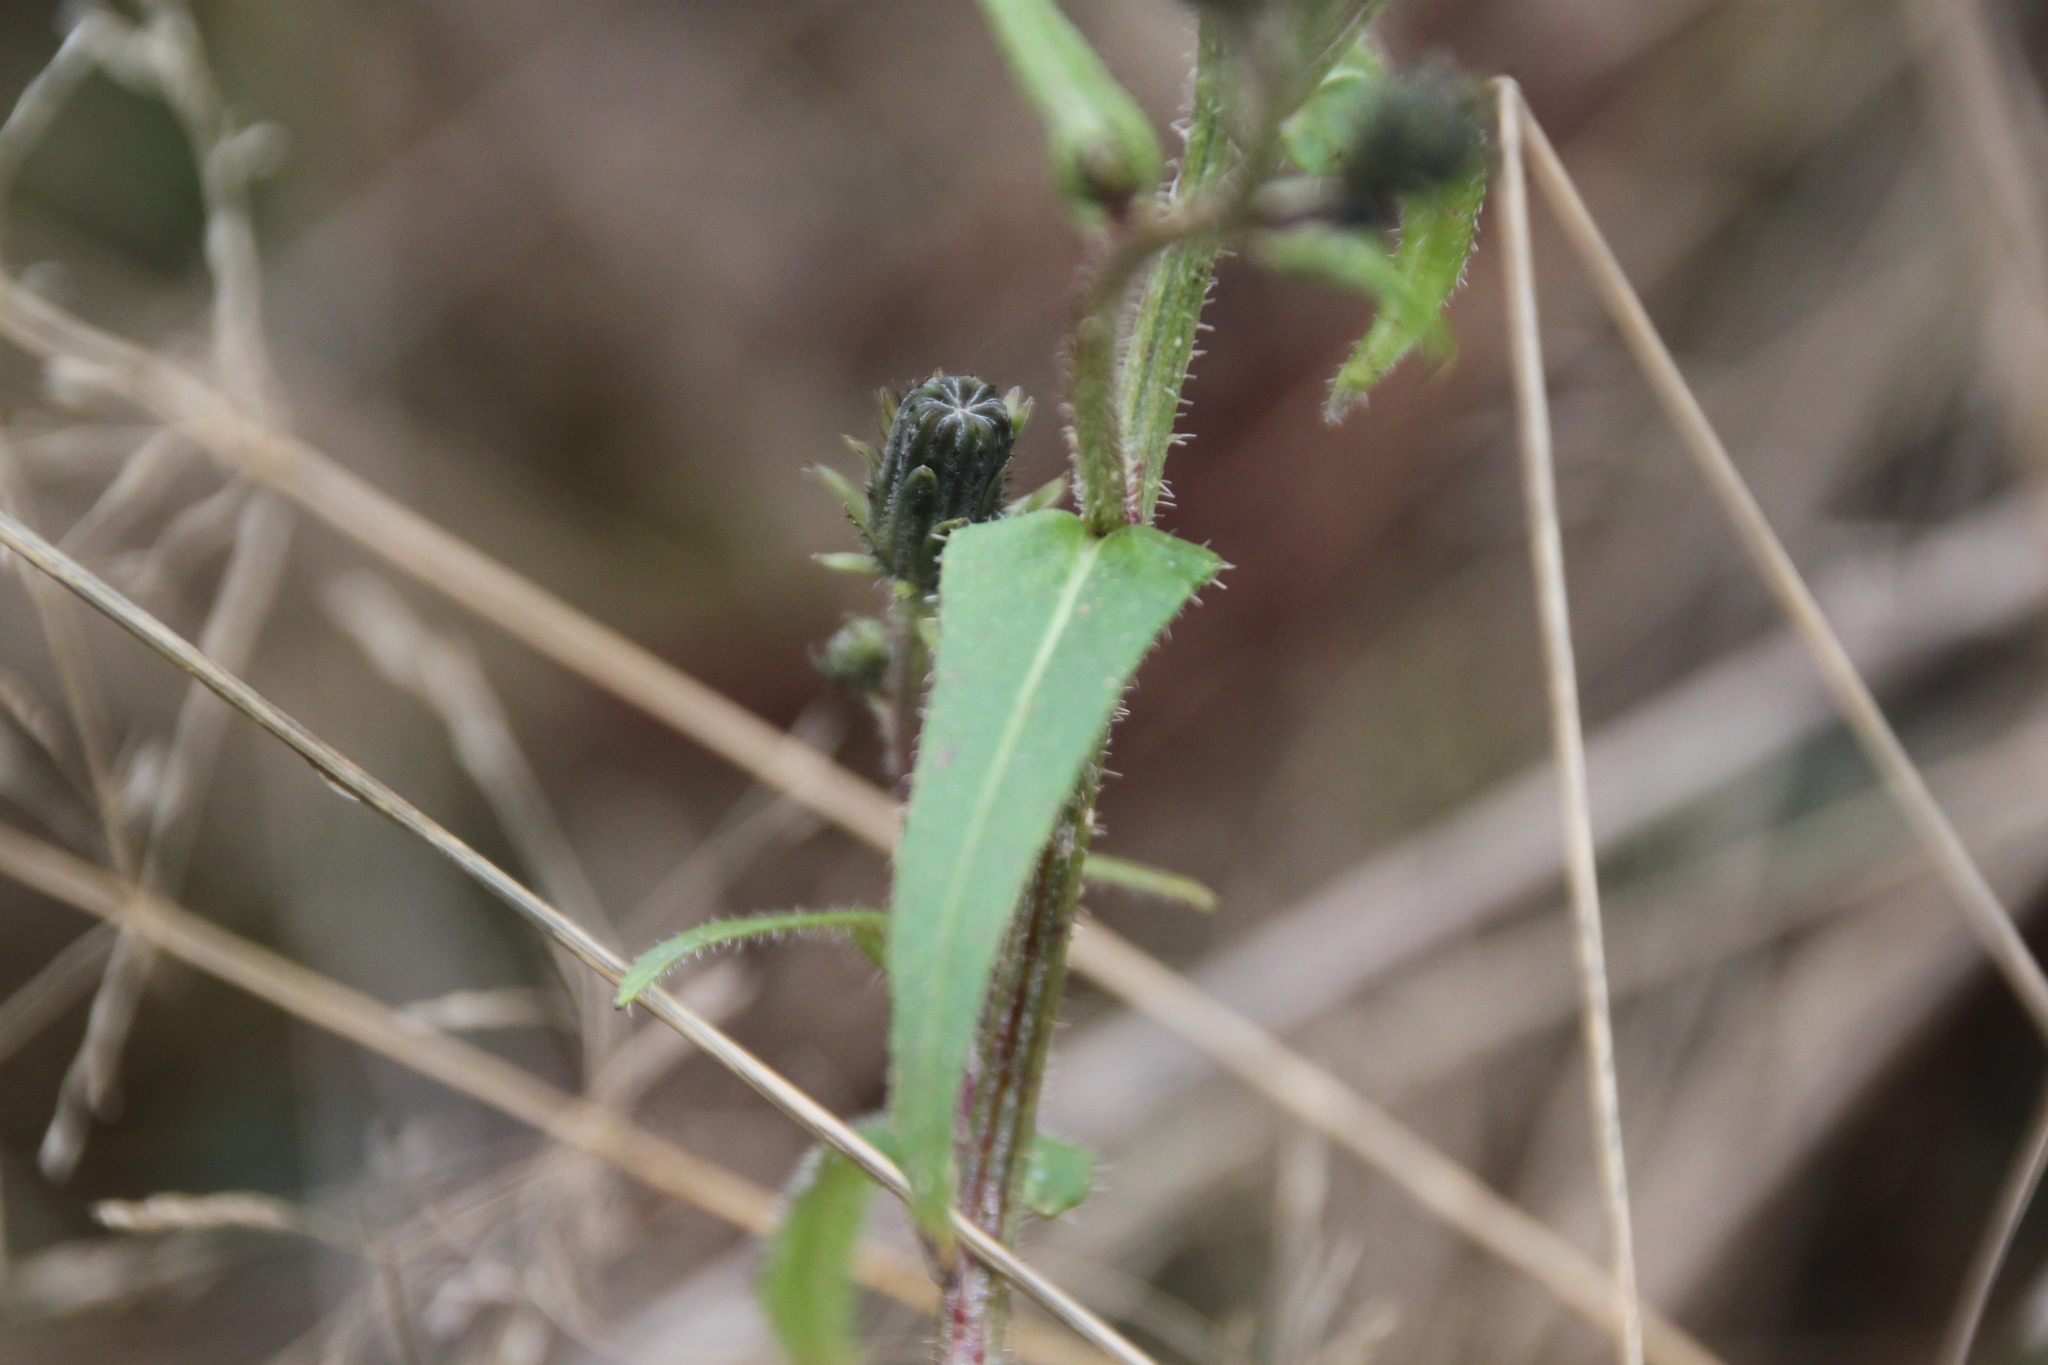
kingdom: Plantae
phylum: Tracheophyta
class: Magnoliopsida
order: Asterales
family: Asteraceae
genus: Picris
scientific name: Picris hieracioides
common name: Hawkweed oxtongue
